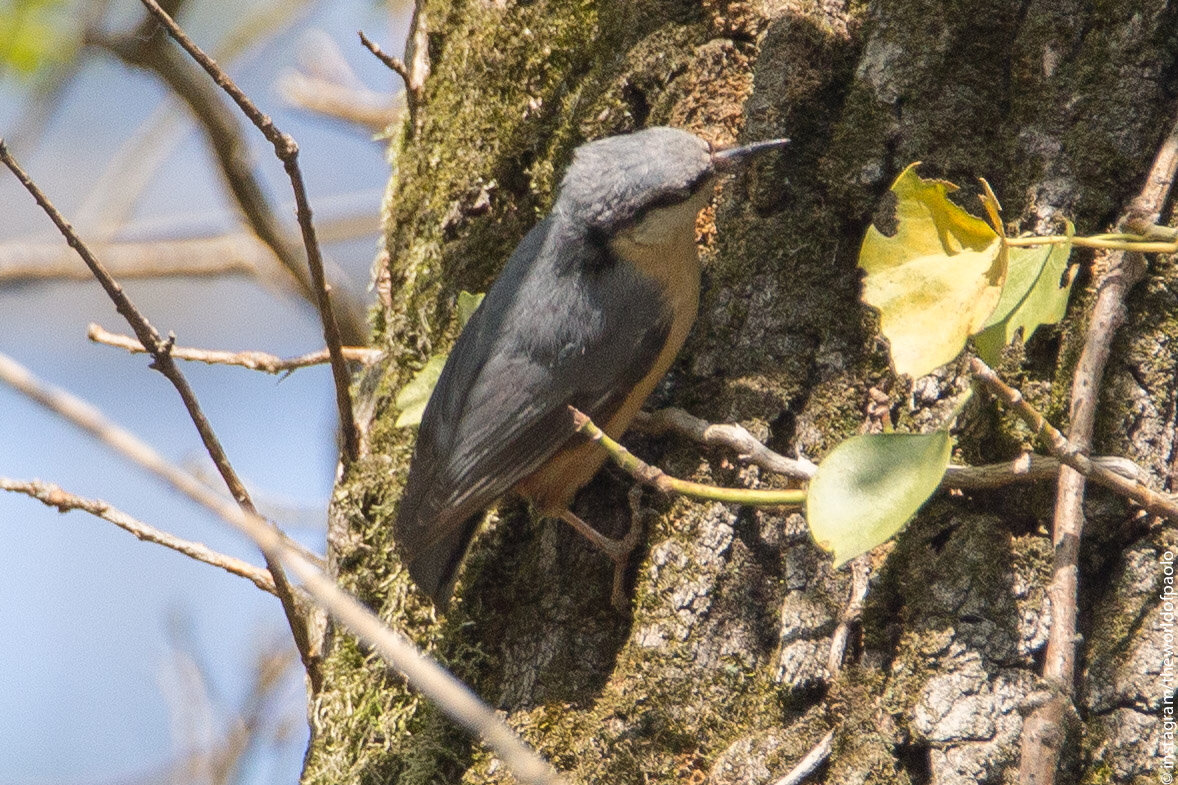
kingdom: Animalia
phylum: Chordata
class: Aves
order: Passeriformes
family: Sittidae
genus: Sitta
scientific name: Sitta europaea
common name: Eurasian nuthatch
